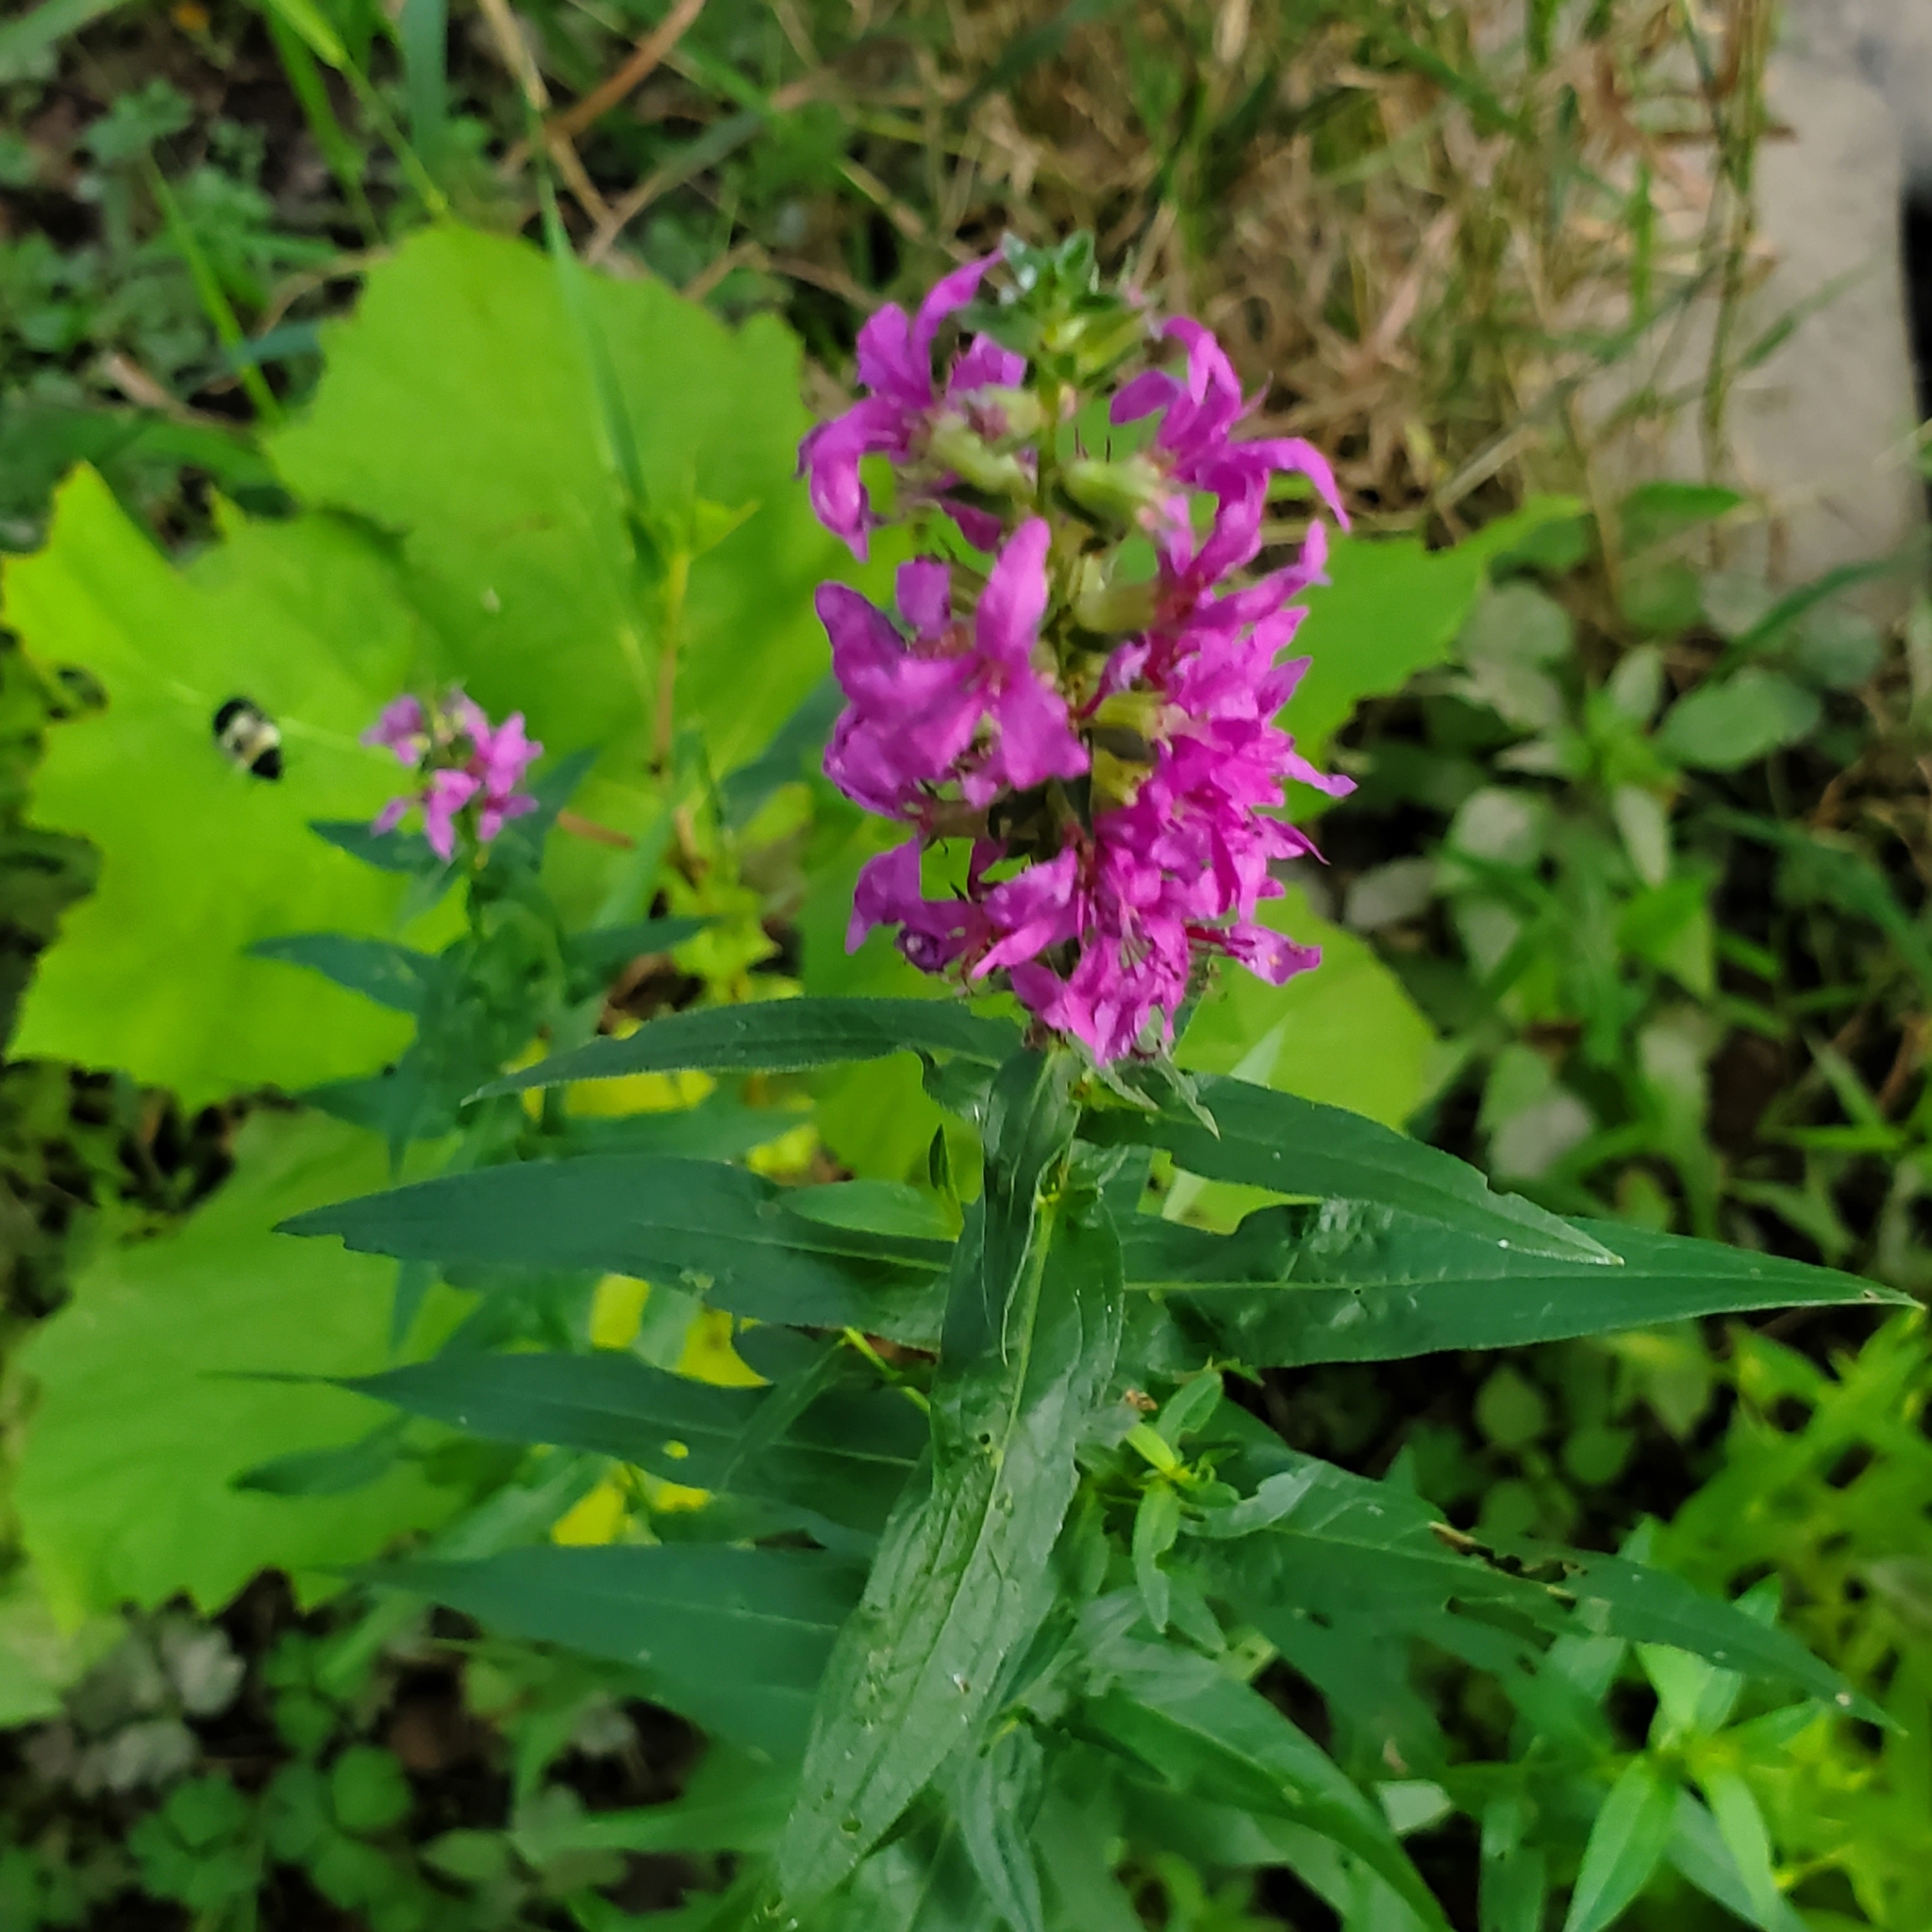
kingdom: Plantae
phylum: Tracheophyta
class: Magnoliopsida
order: Myrtales
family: Lythraceae
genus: Lythrum
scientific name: Lythrum salicaria
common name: Purple loosestrife
